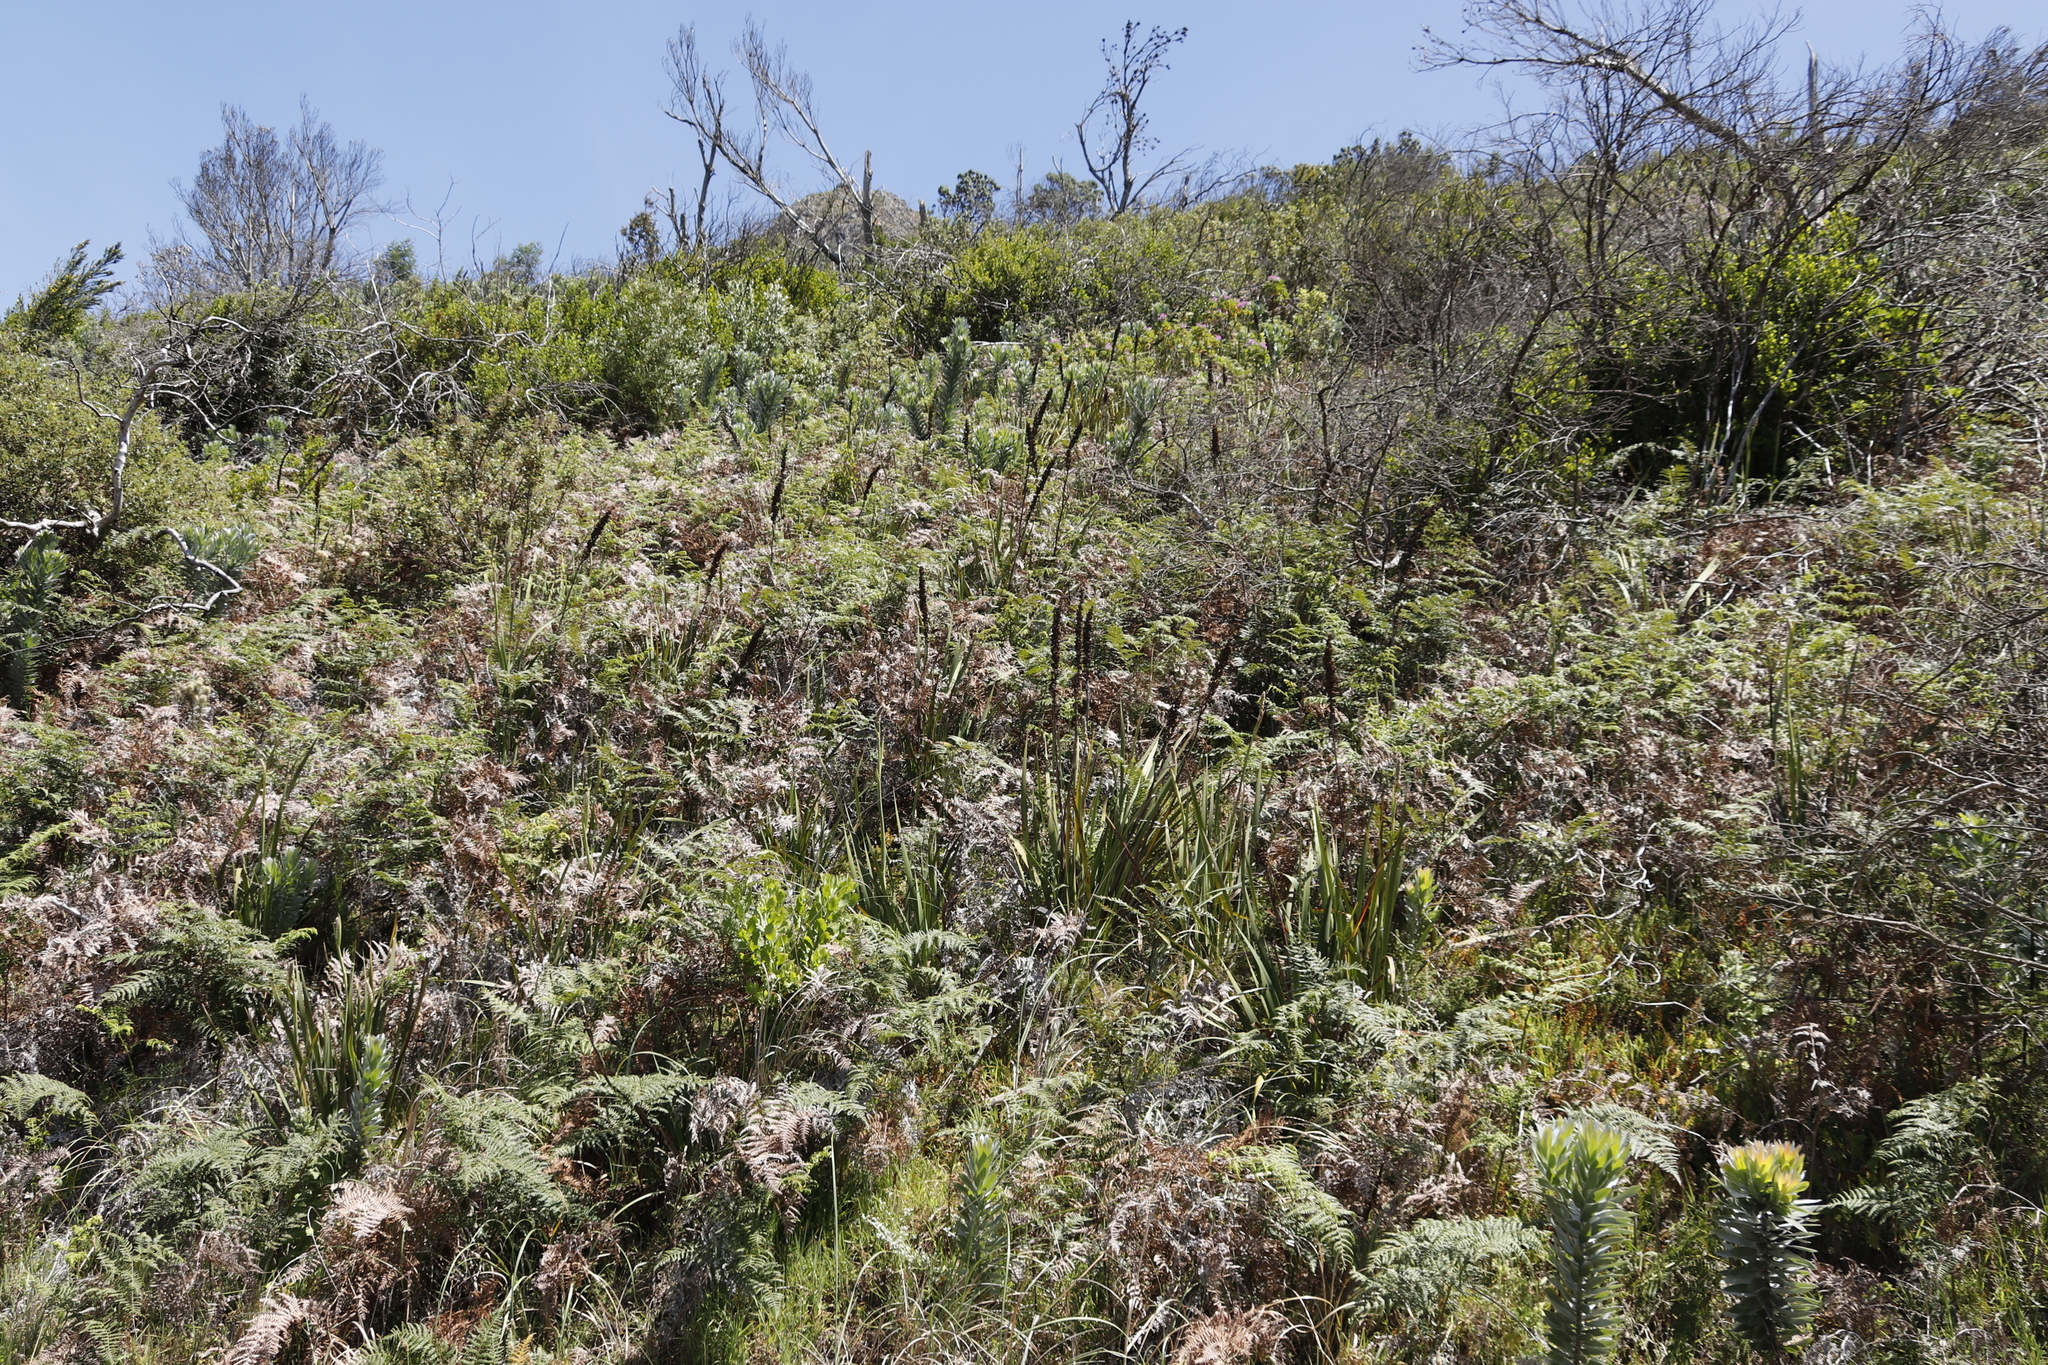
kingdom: Plantae
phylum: Tracheophyta
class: Polypodiopsida
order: Polypodiales
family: Dennstaedtiaceae
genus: Pteridium
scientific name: Pteridium aquilinum
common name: Bracken
